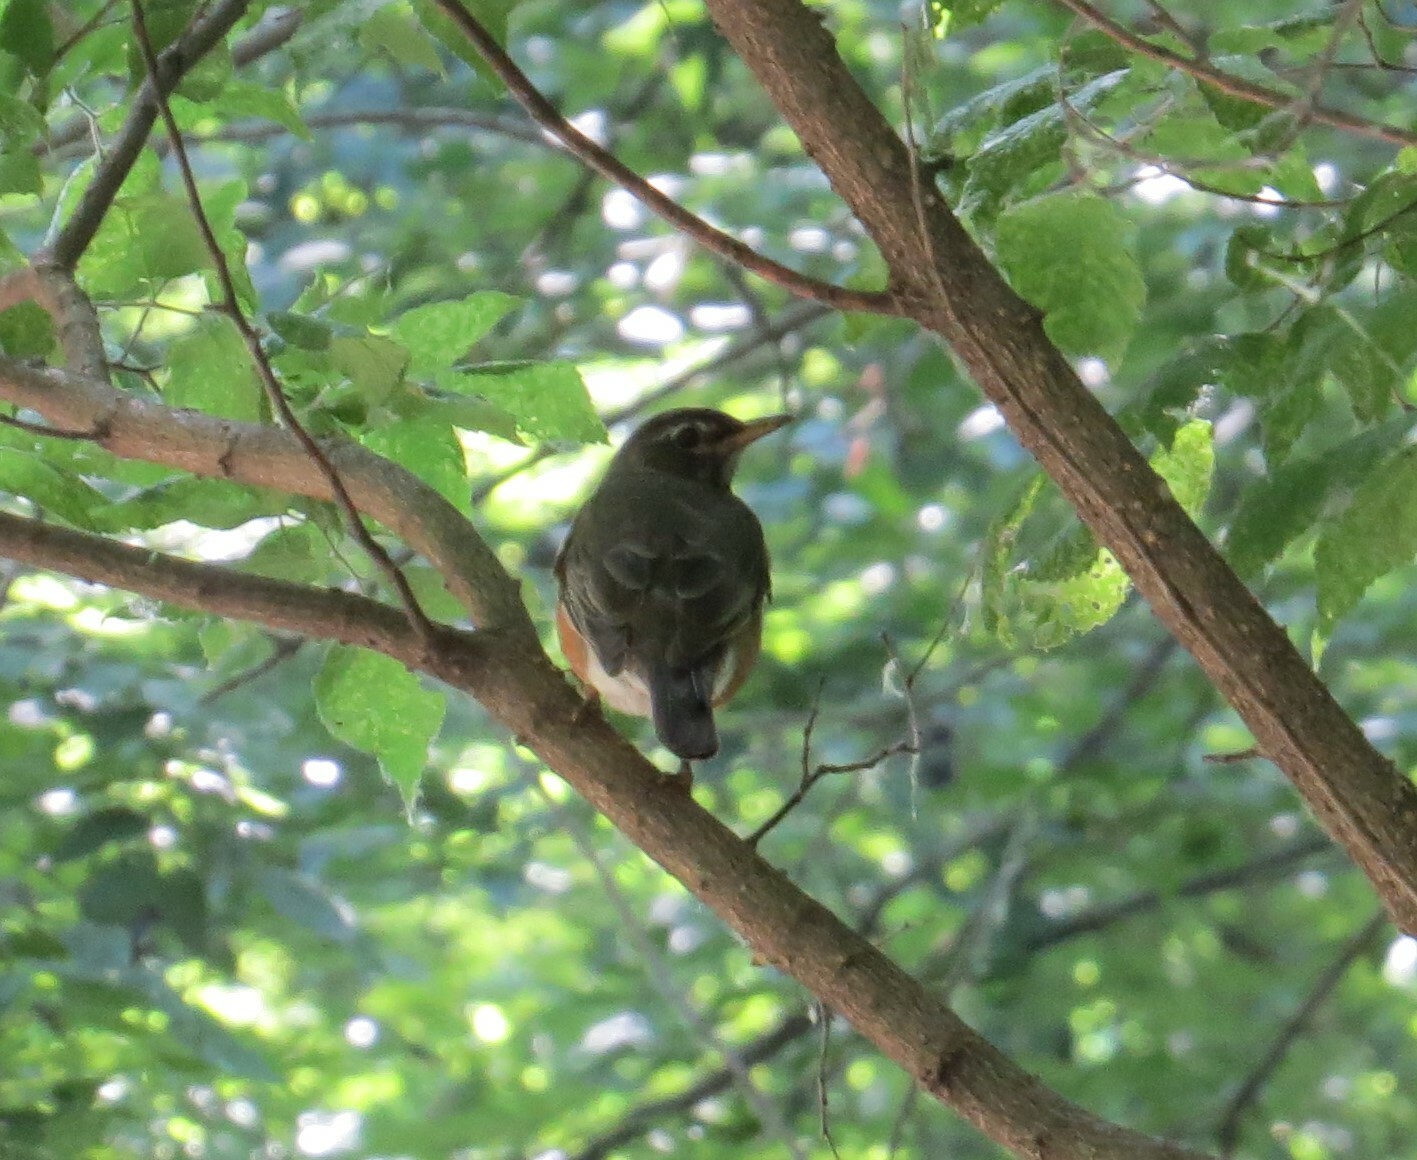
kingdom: Animalia
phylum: Chordata
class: Aves
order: Passeriformes
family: Turdidae
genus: Turdus
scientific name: Turdus migratorius
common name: American robin
